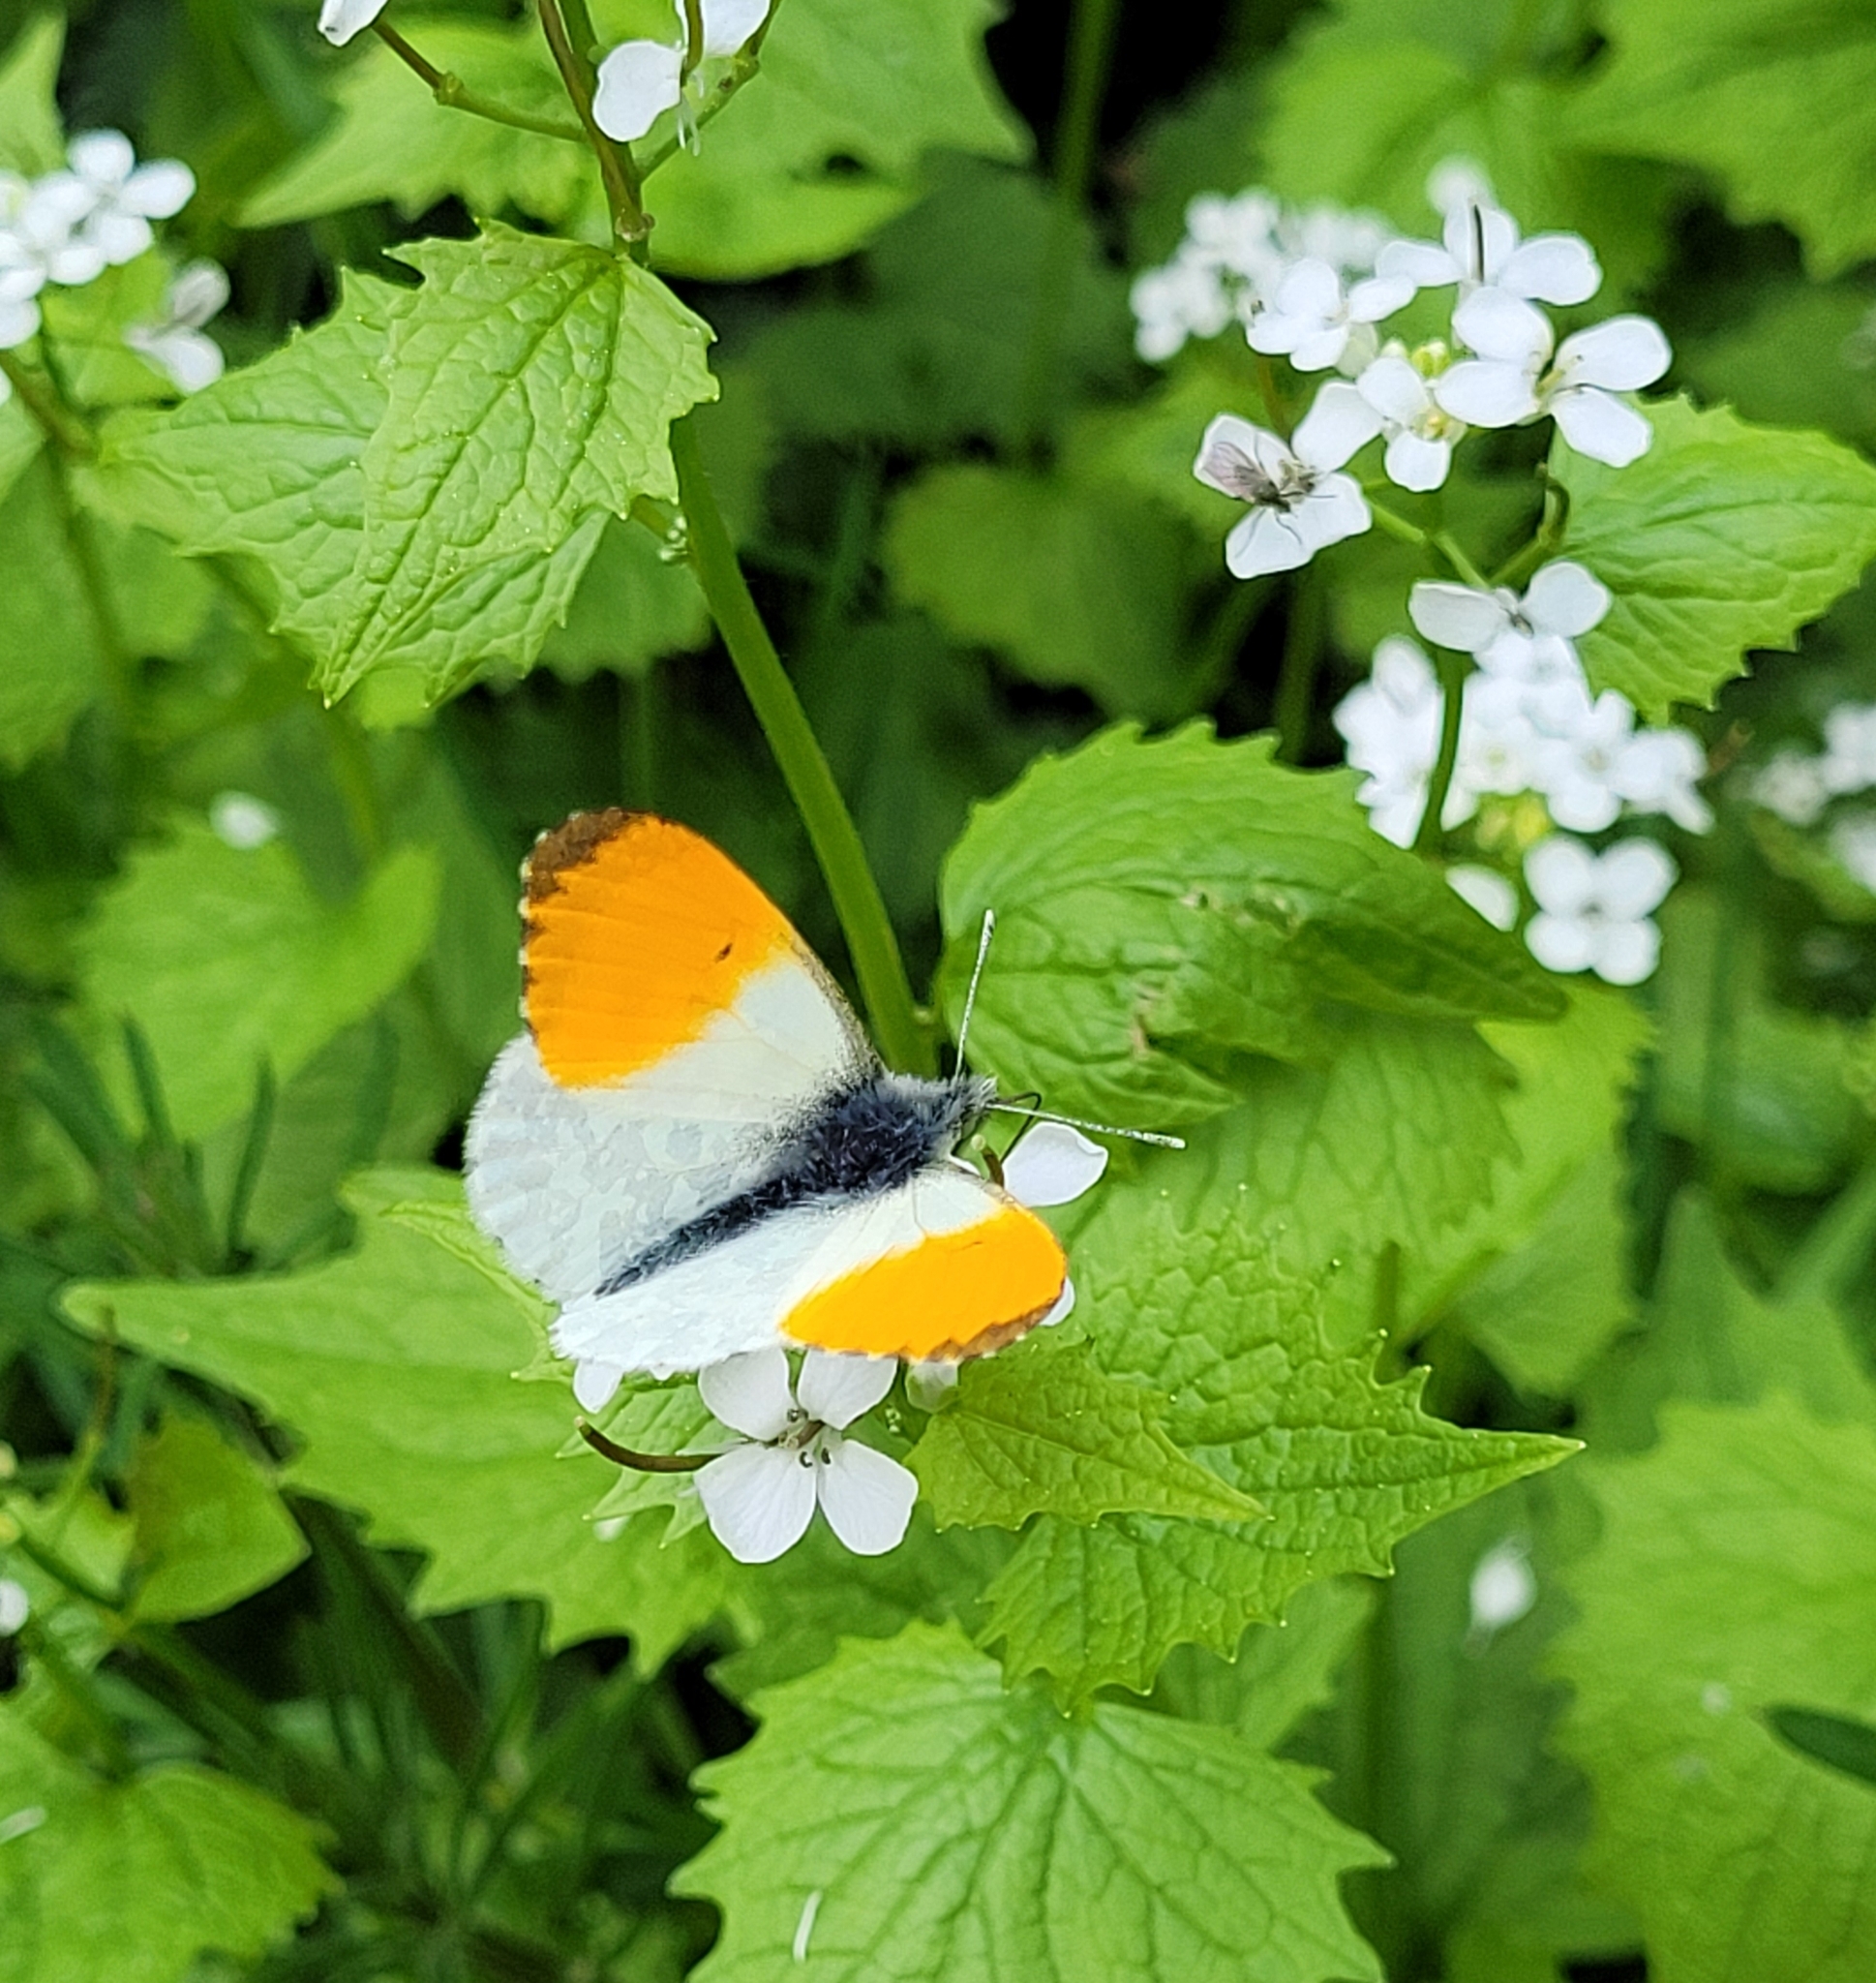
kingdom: Animalia
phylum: Arthropoda
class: Insecta
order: Lepidoptera
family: Pieridae
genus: Anthocharis
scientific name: Anthocharis cardamines
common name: Orange-tip
